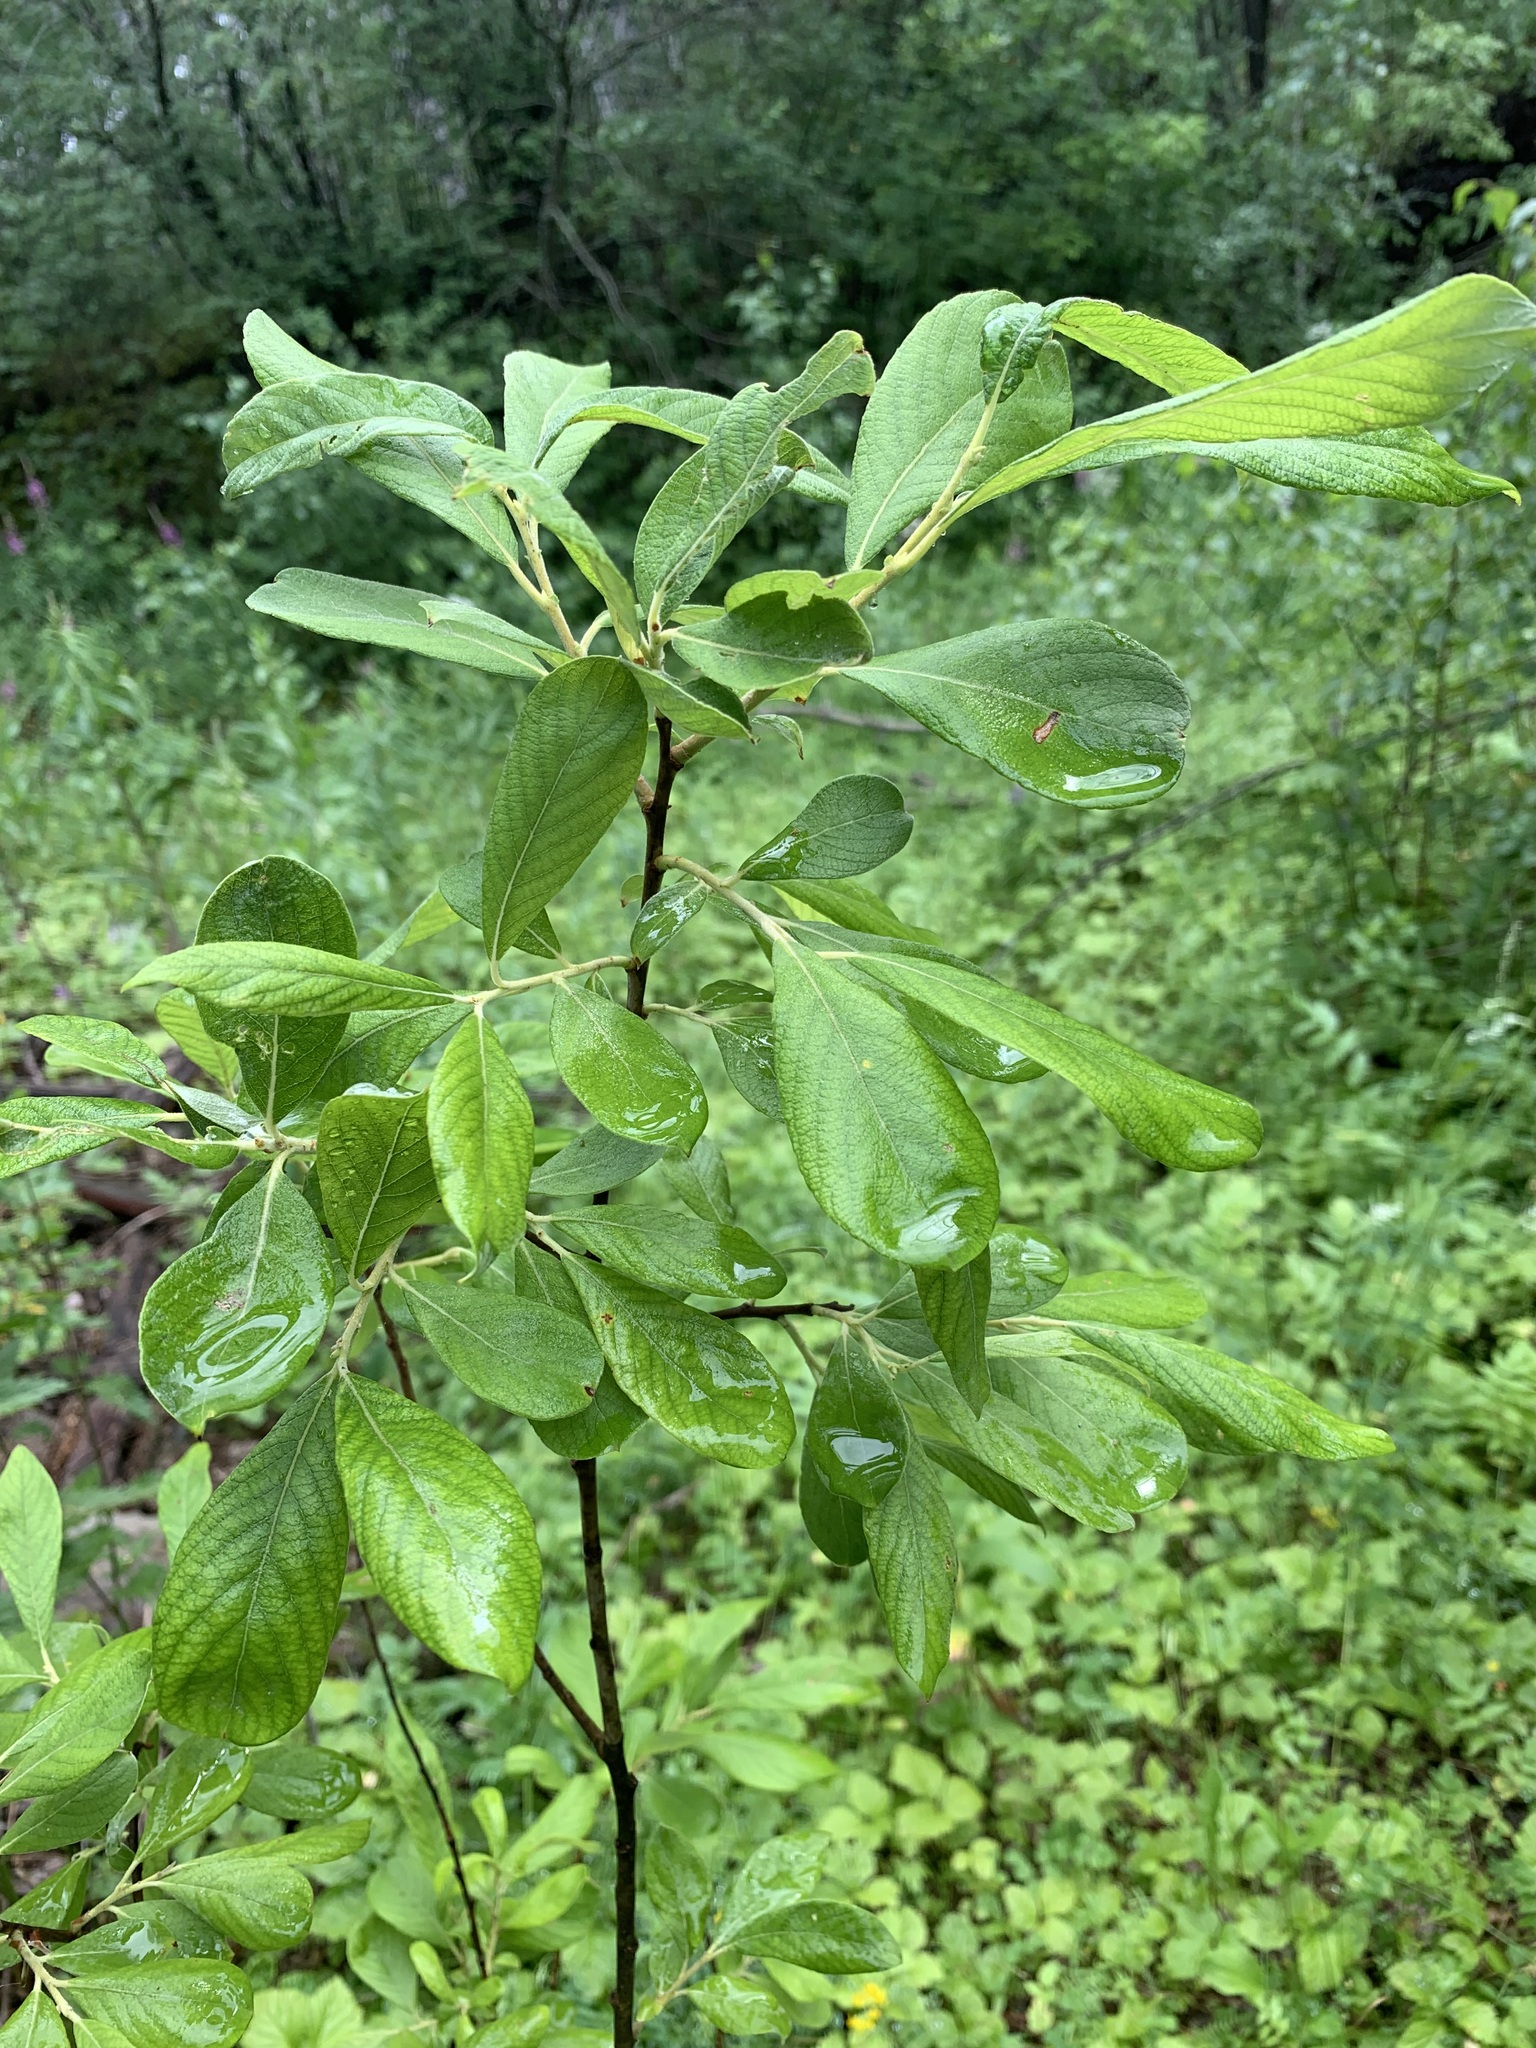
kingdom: Plantae
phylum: Tracheophyta
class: Magnoliopsida
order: Malpighiales
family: Salicaceae
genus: Salix
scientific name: Salix cinerea
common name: Common sallow
